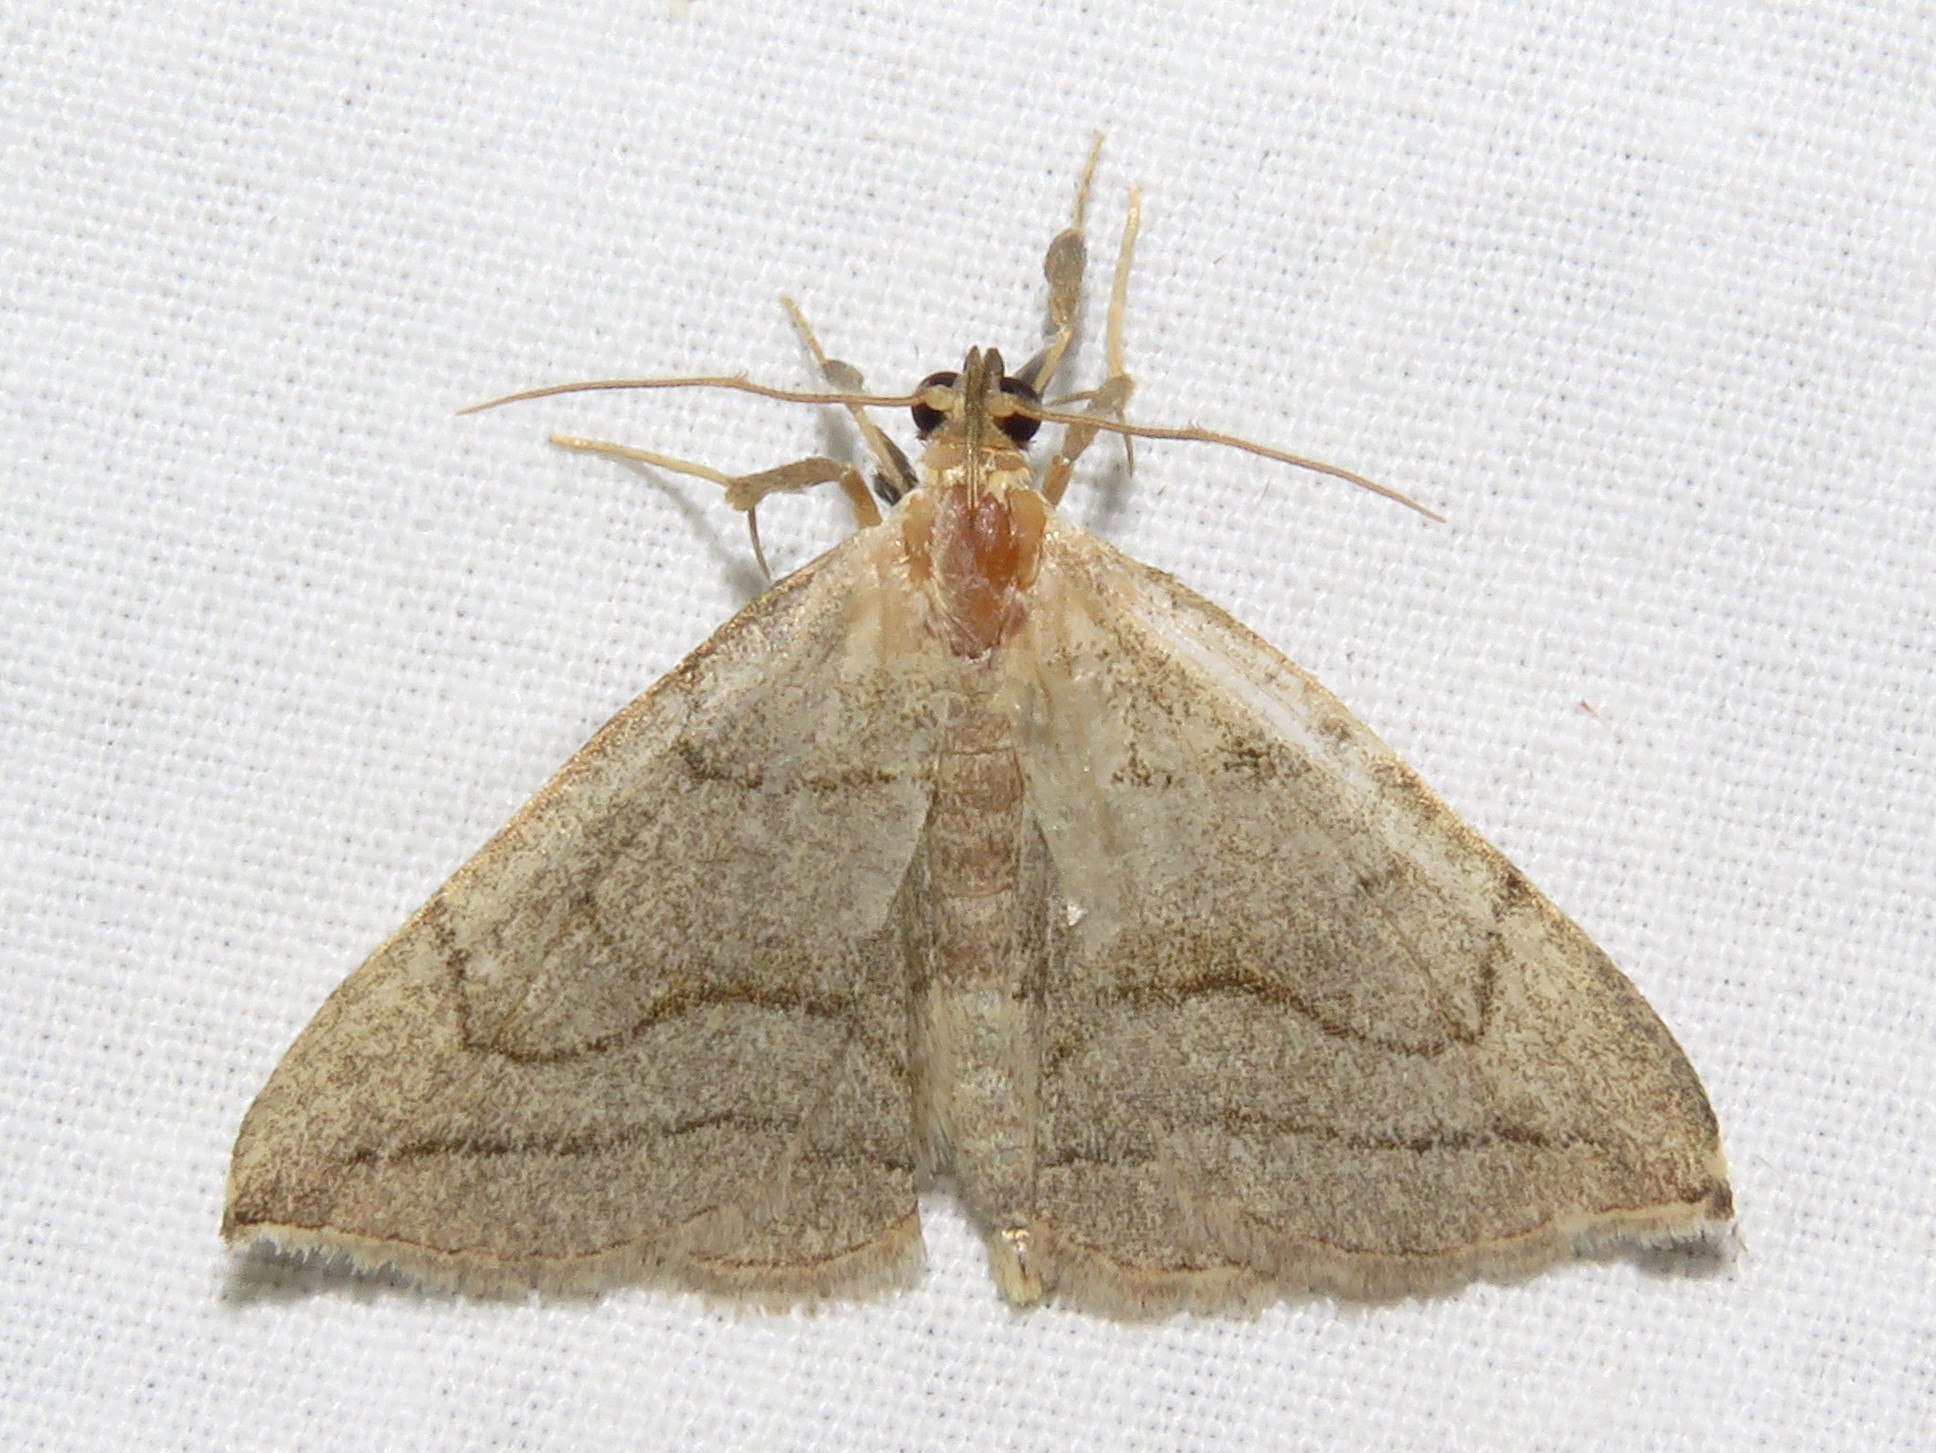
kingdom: Animalia
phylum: Arthropoda
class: Insecta
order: Lepidoptera
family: Erebidae
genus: Zanclognatha
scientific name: Zanclognatha pedipilalis
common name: Grayish fan-foot
